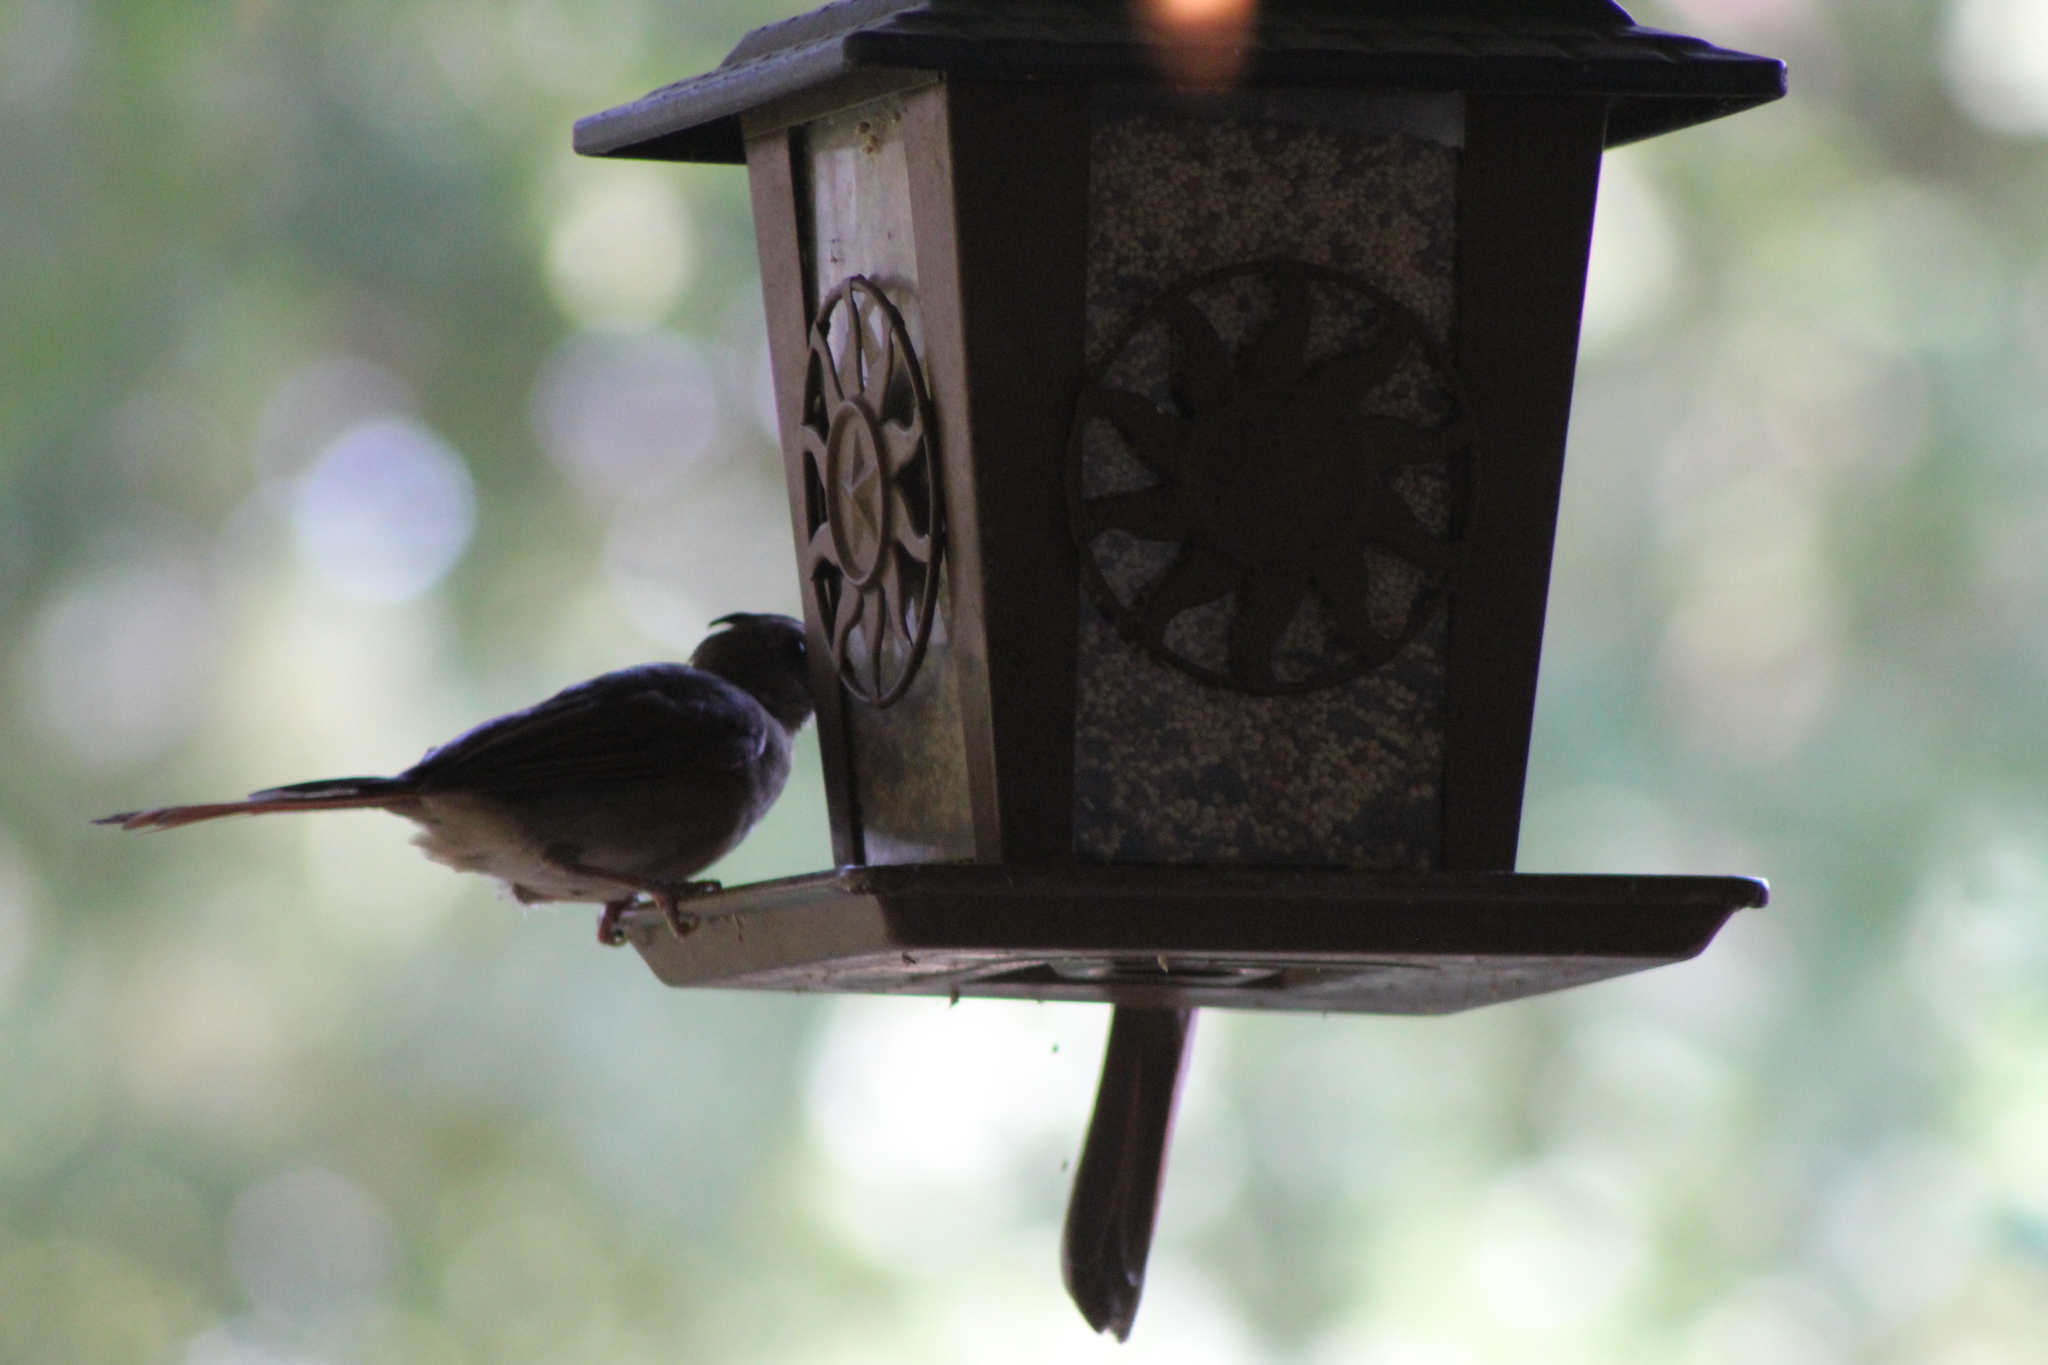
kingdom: Animalia
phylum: Chordata
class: Aves
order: Passeriformes
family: Cardinalidae
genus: Cardinalis
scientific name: Cardinalis cardinalis
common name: Northern cardinal
